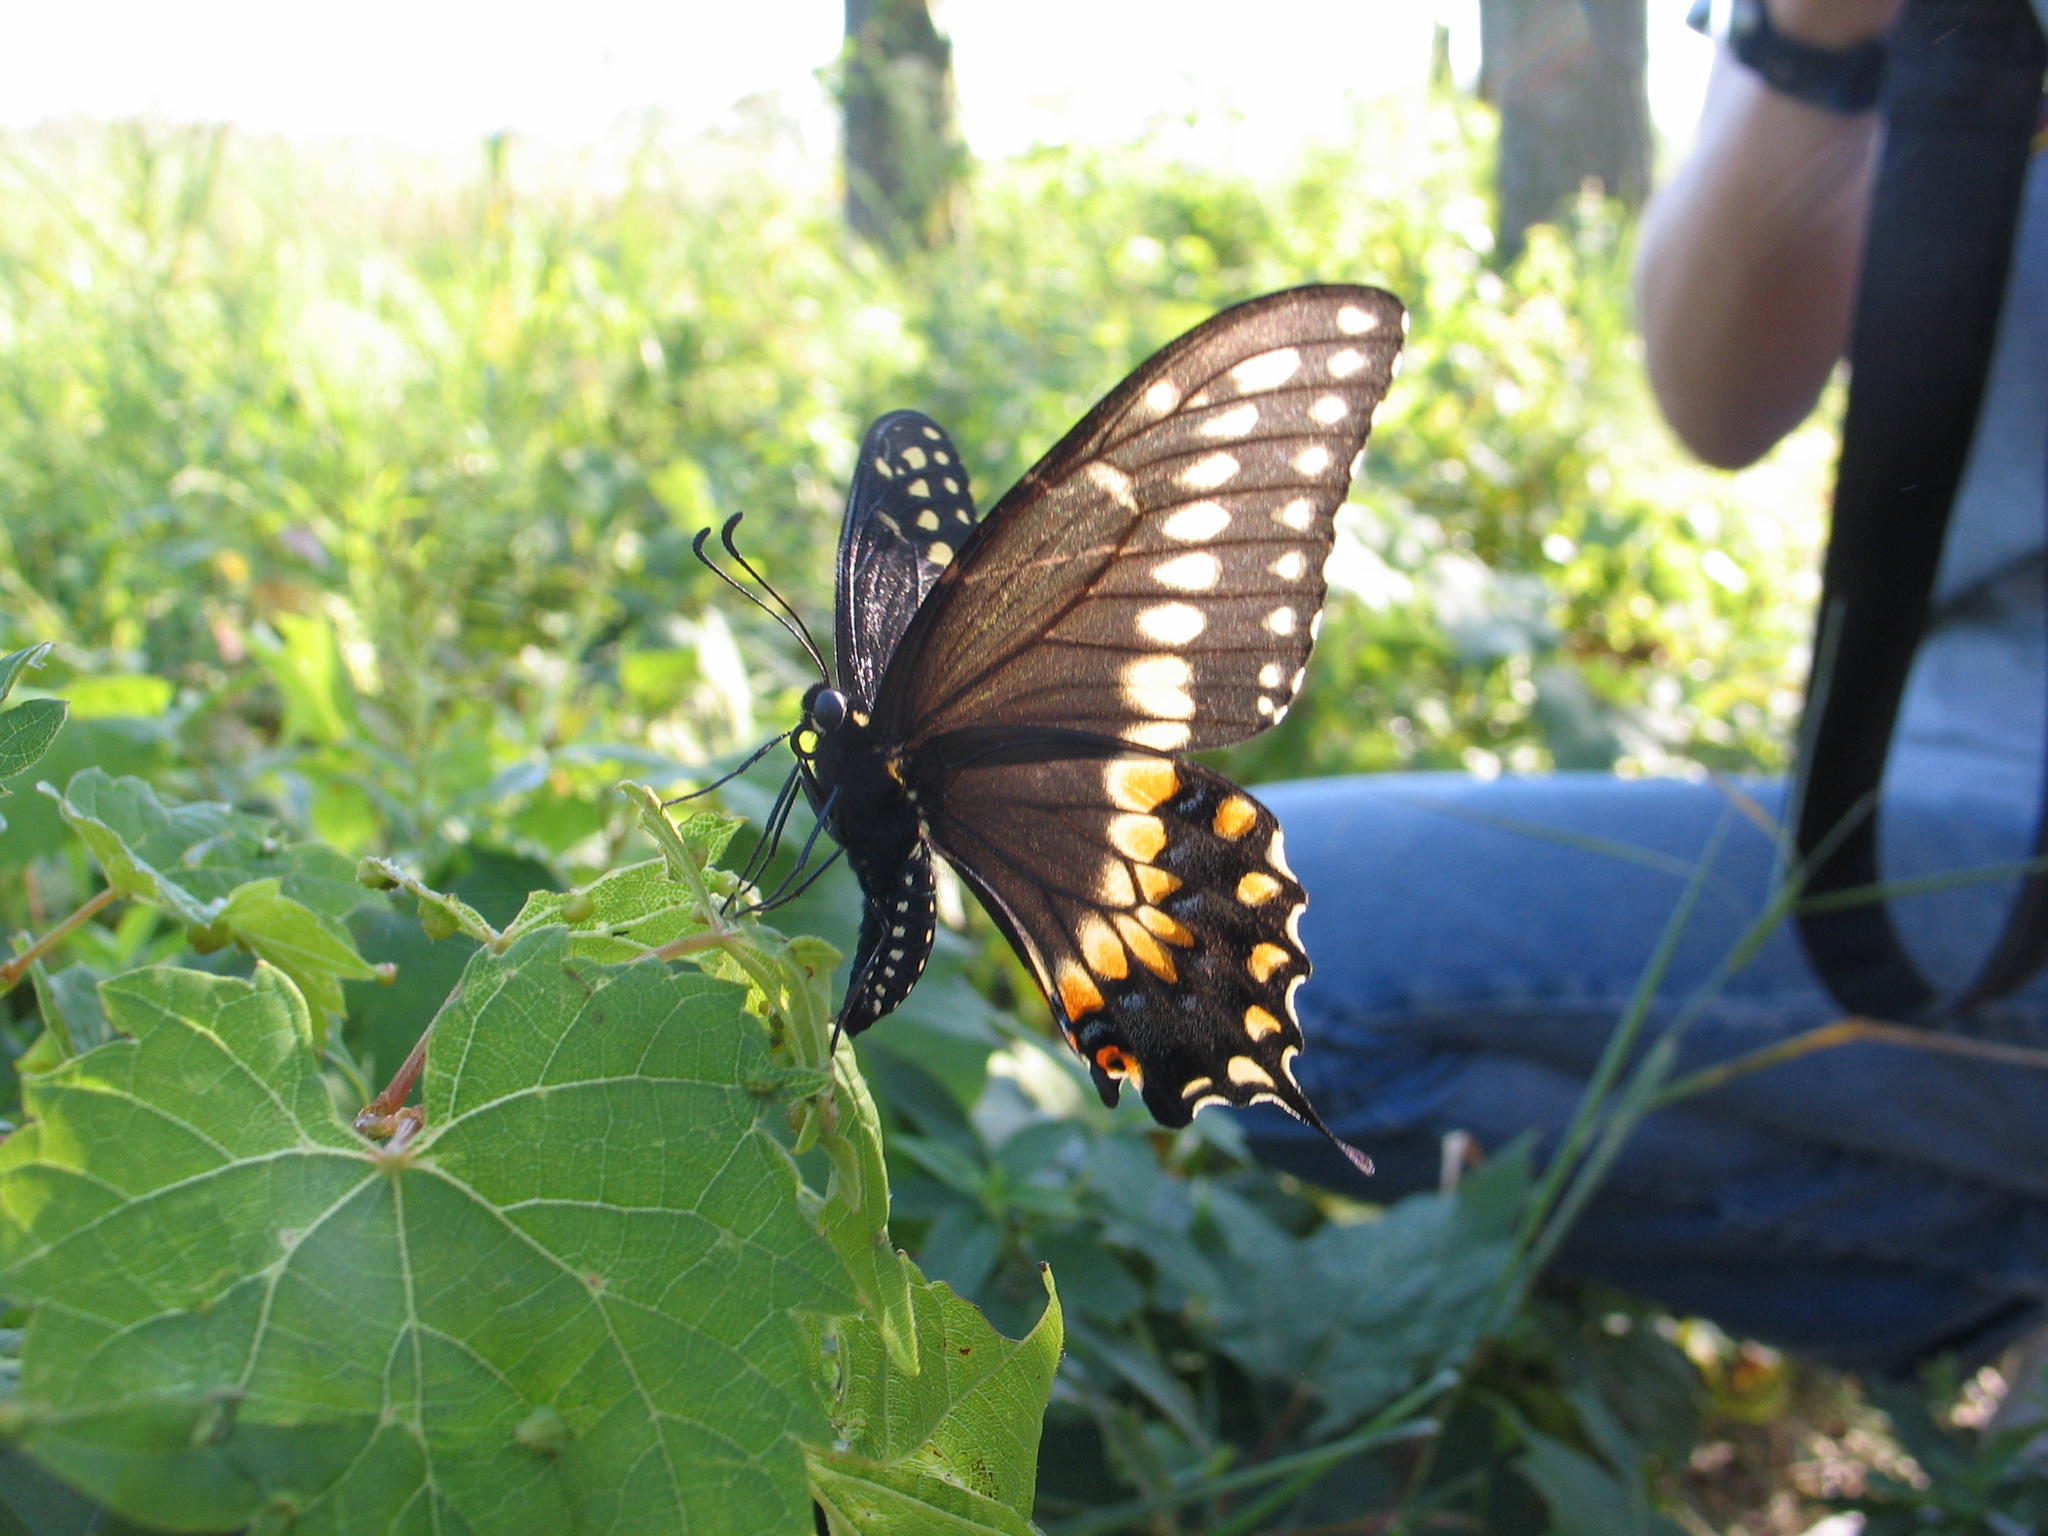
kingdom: Animalia
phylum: Arthropoda
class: Insecta
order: Lepidoptera
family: Papilionidae
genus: Papilio
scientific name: Papilio polyxenes
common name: Black swallowtail
